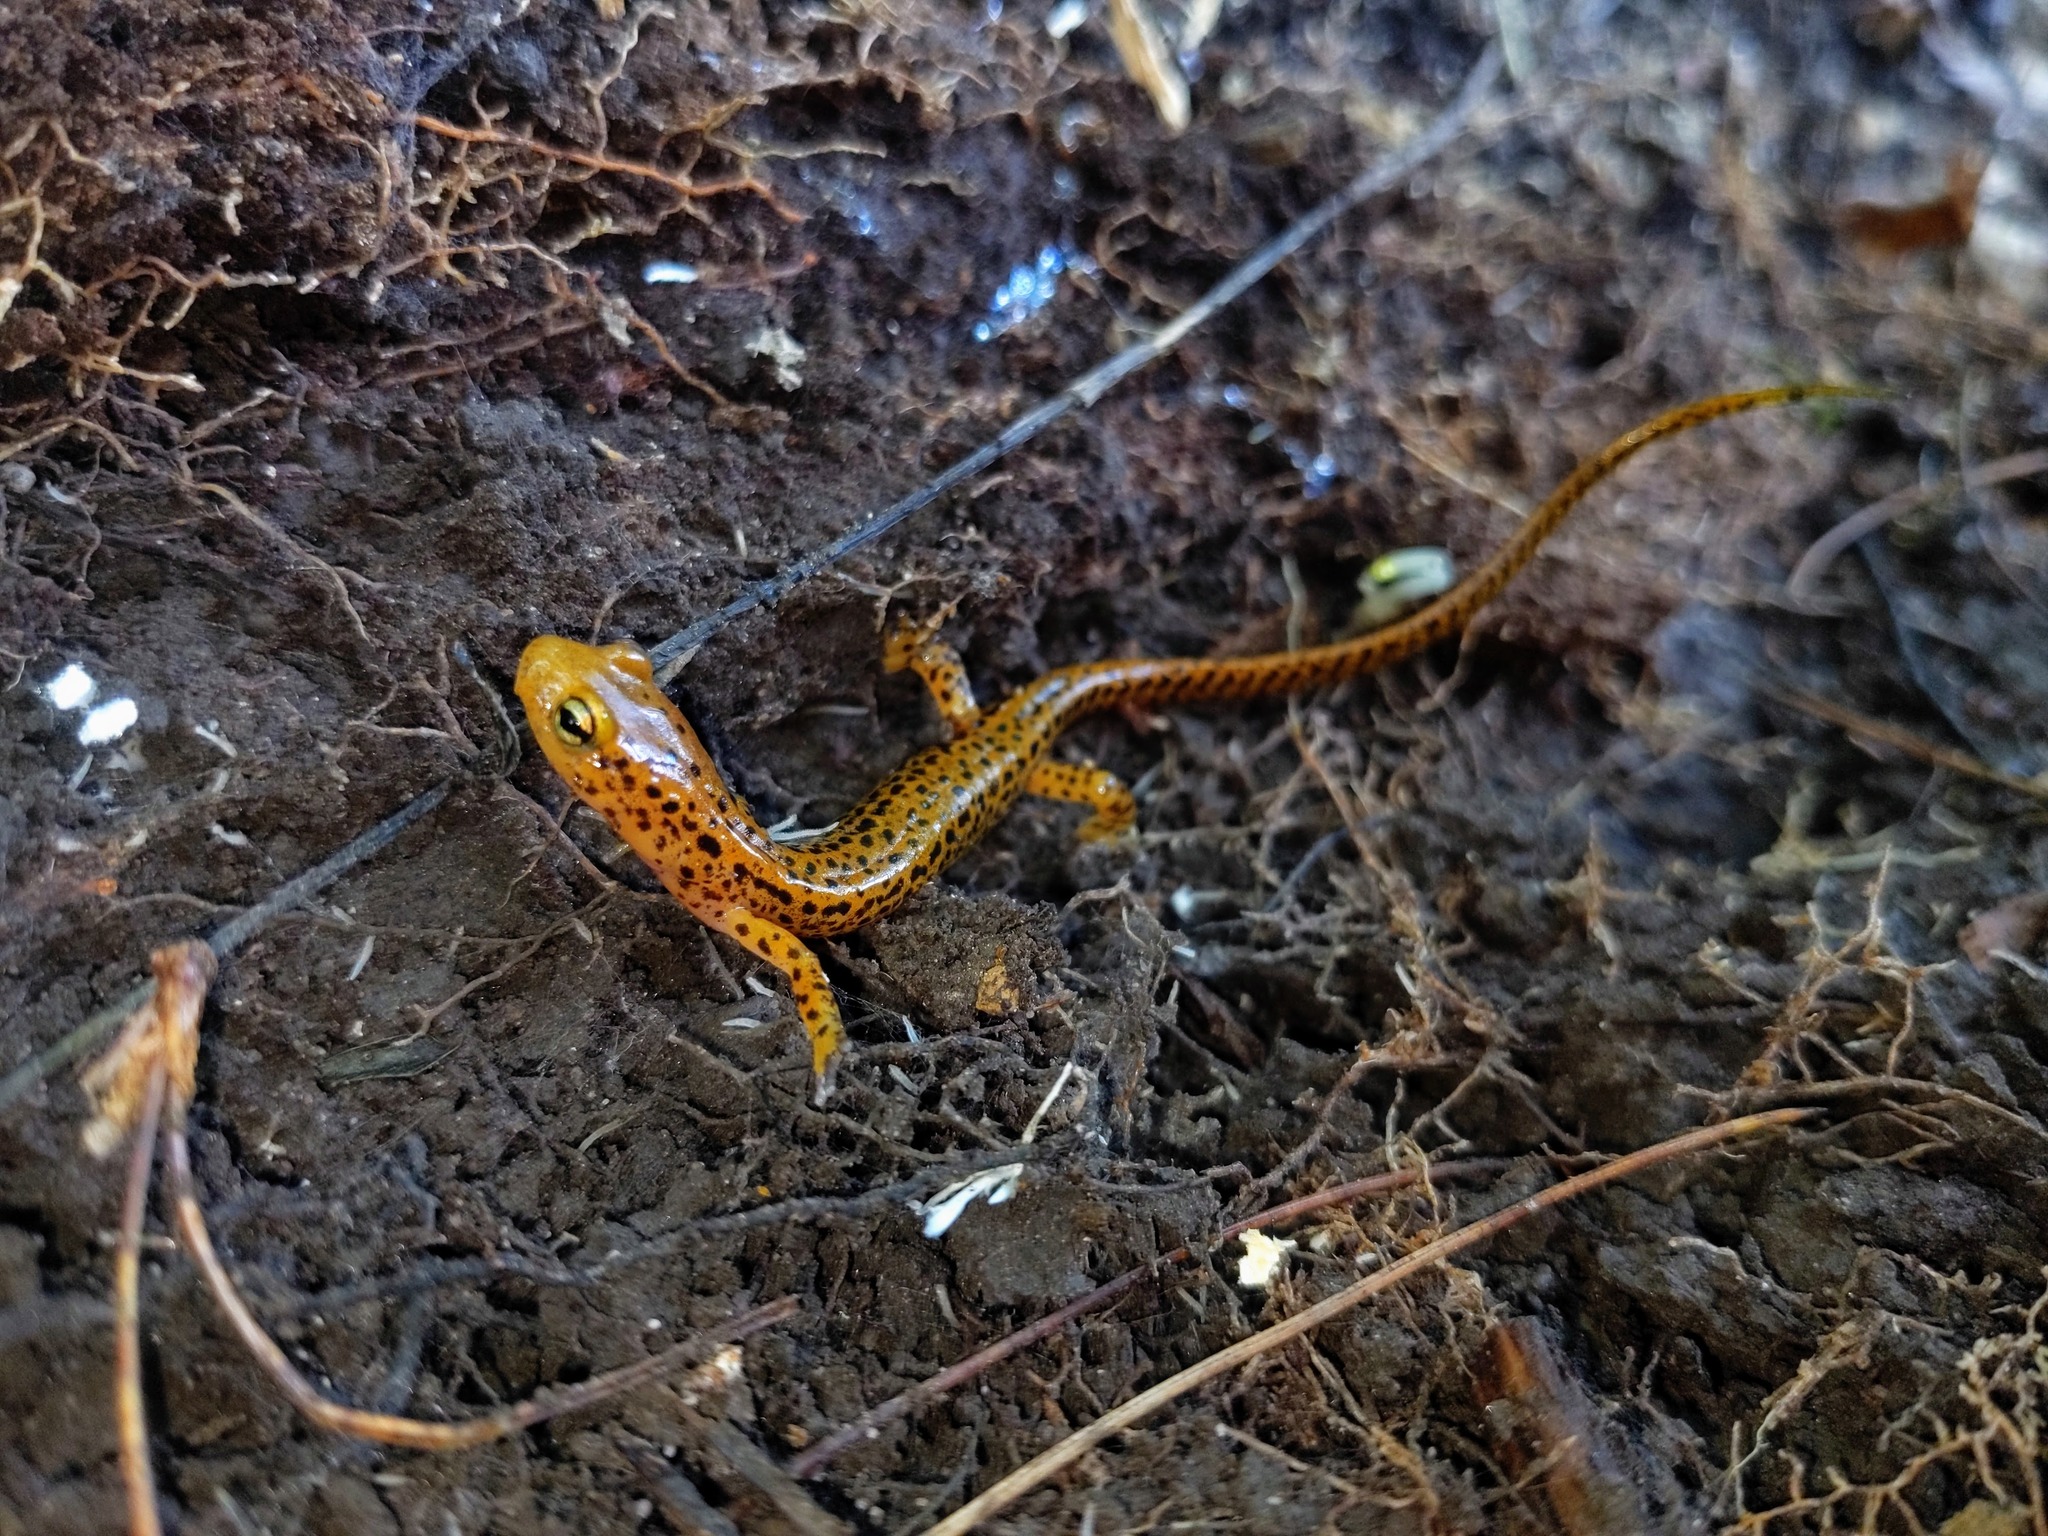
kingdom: Animalia
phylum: Chordata
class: Amphibia
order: Caudata
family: Plethodontidae
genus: Eurycea
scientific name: Eurycea longicauda
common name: Long-tailed salamander
